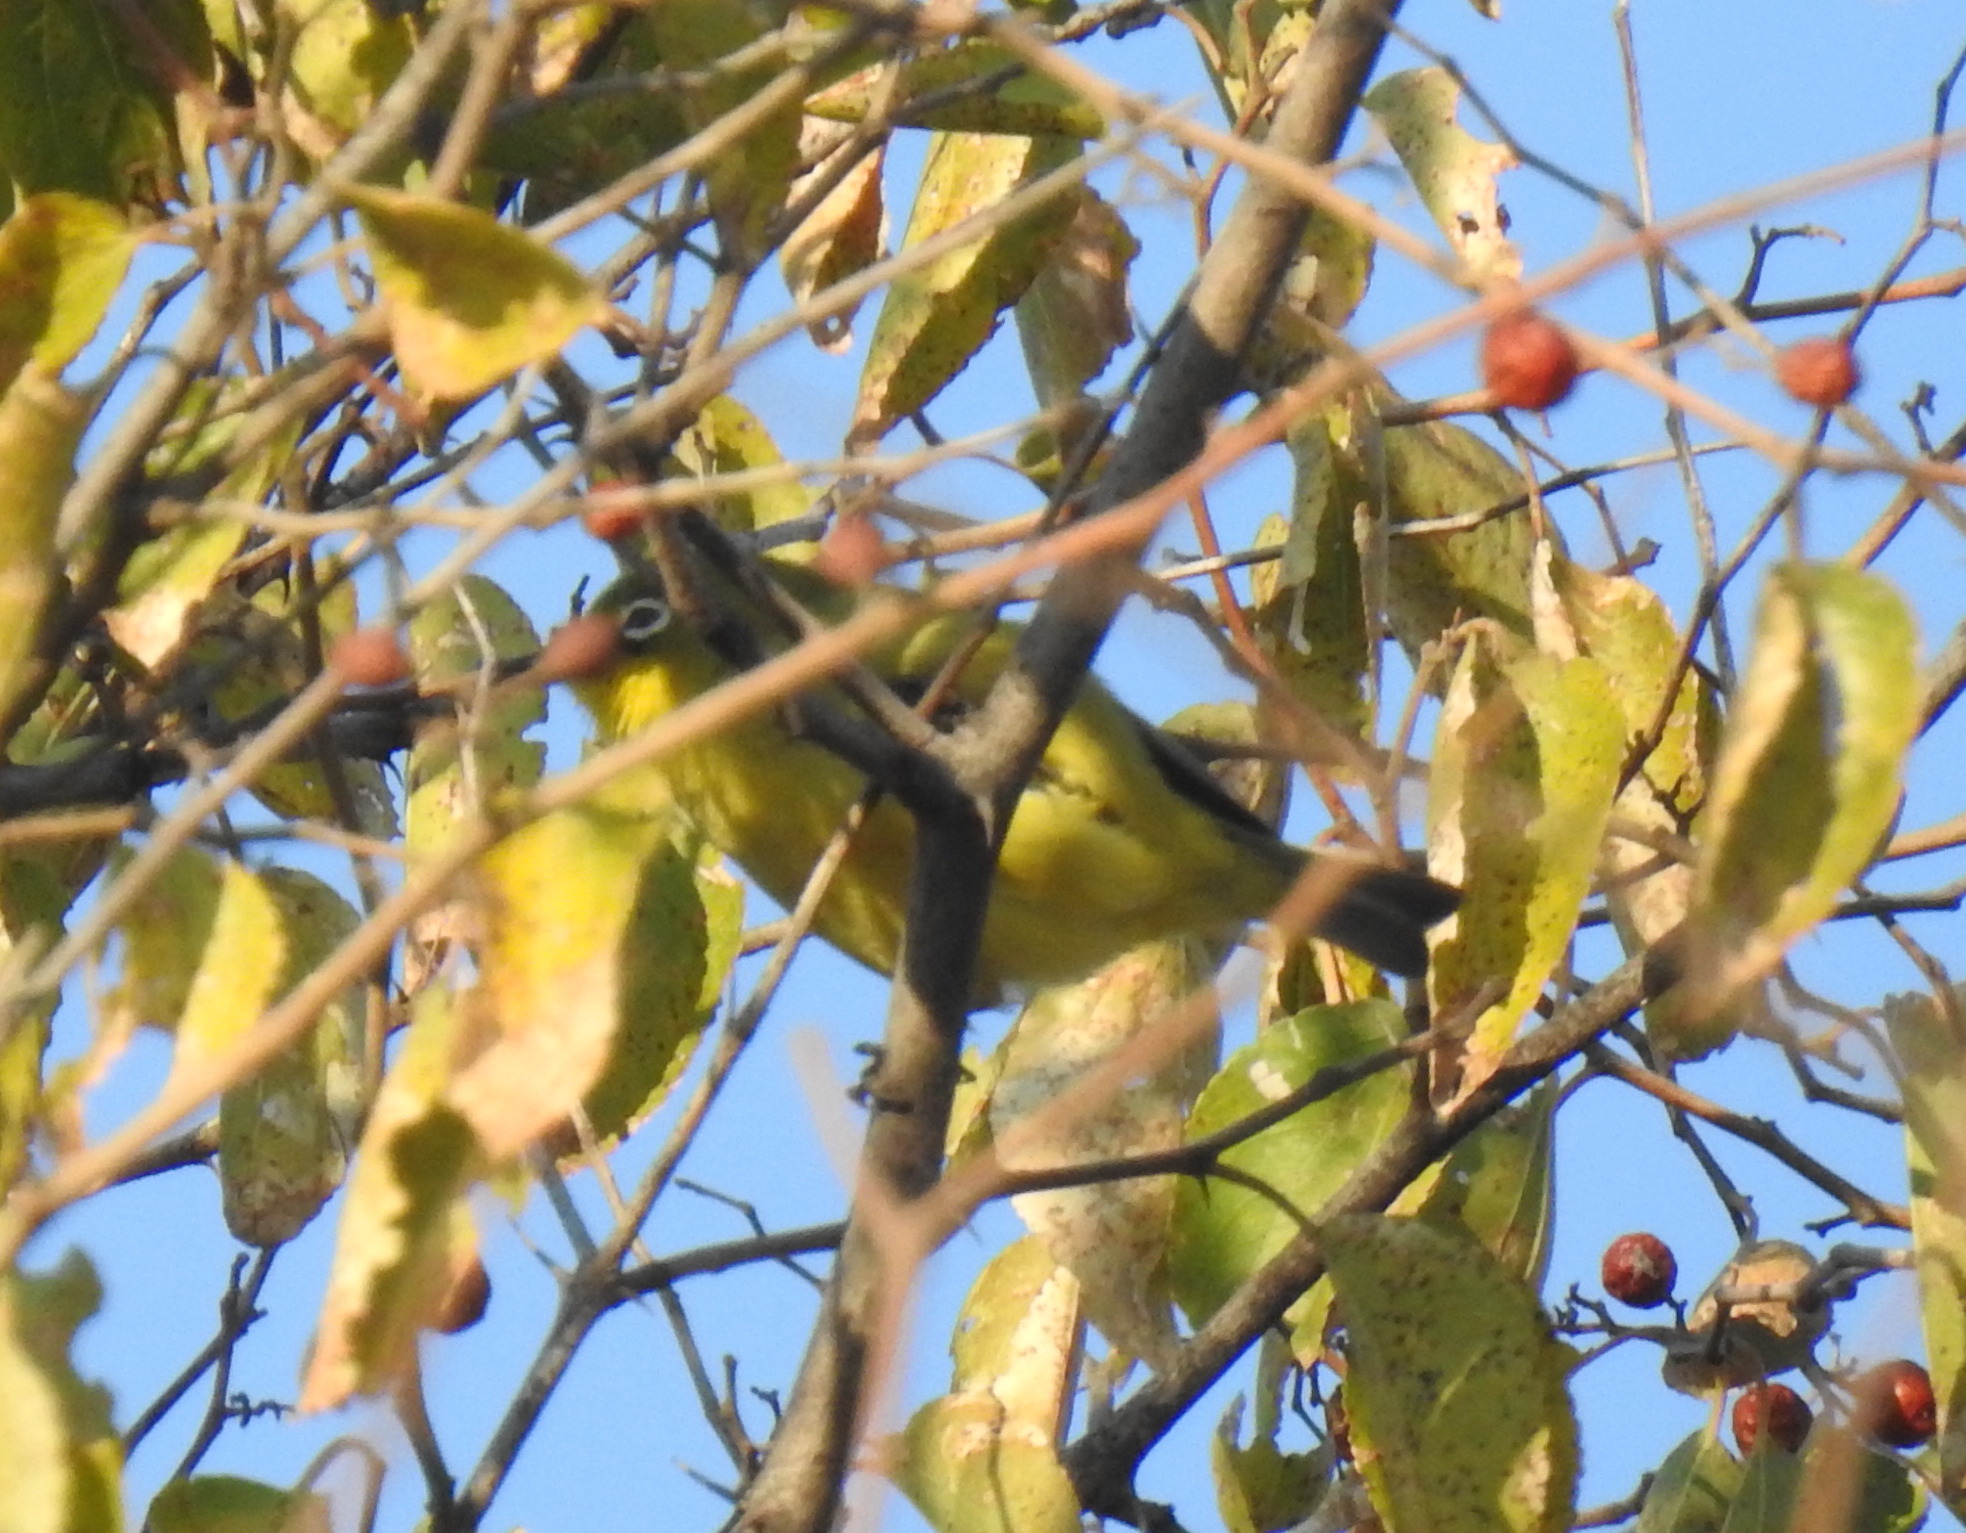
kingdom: Animalia
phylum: Chordata
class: Aves
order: Passeriformes
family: Zosteropidae
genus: Zosterops
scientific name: Zosterops virens
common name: Cape white-eye
